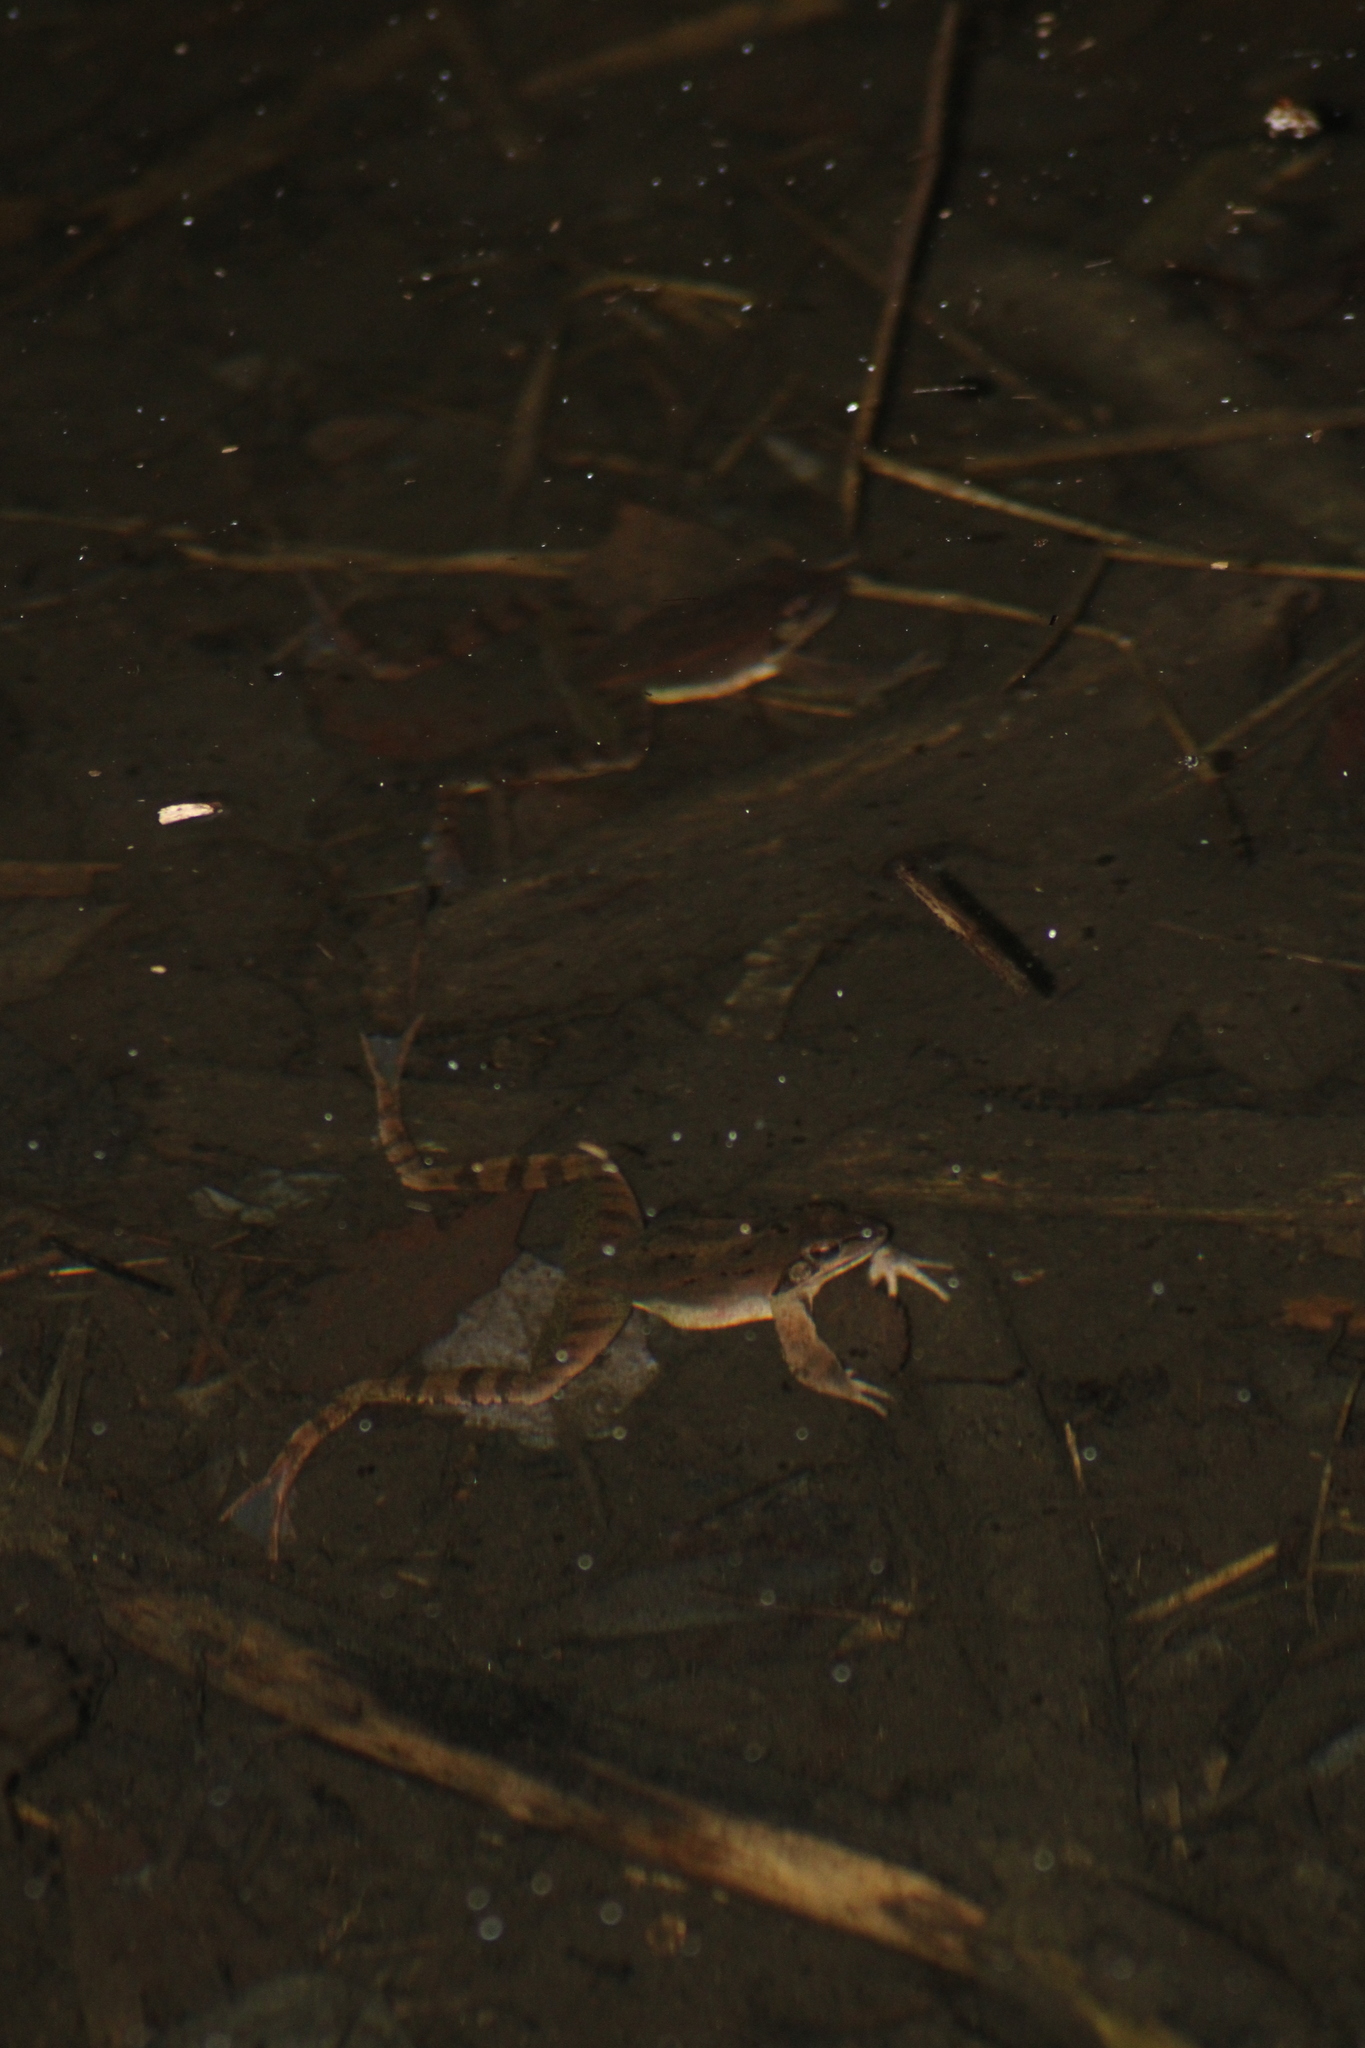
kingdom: Animalia
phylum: Chordata
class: Amphibia
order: Anura
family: Ranidae
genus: Rana
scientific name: Rana dalmatina
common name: Agile frog
